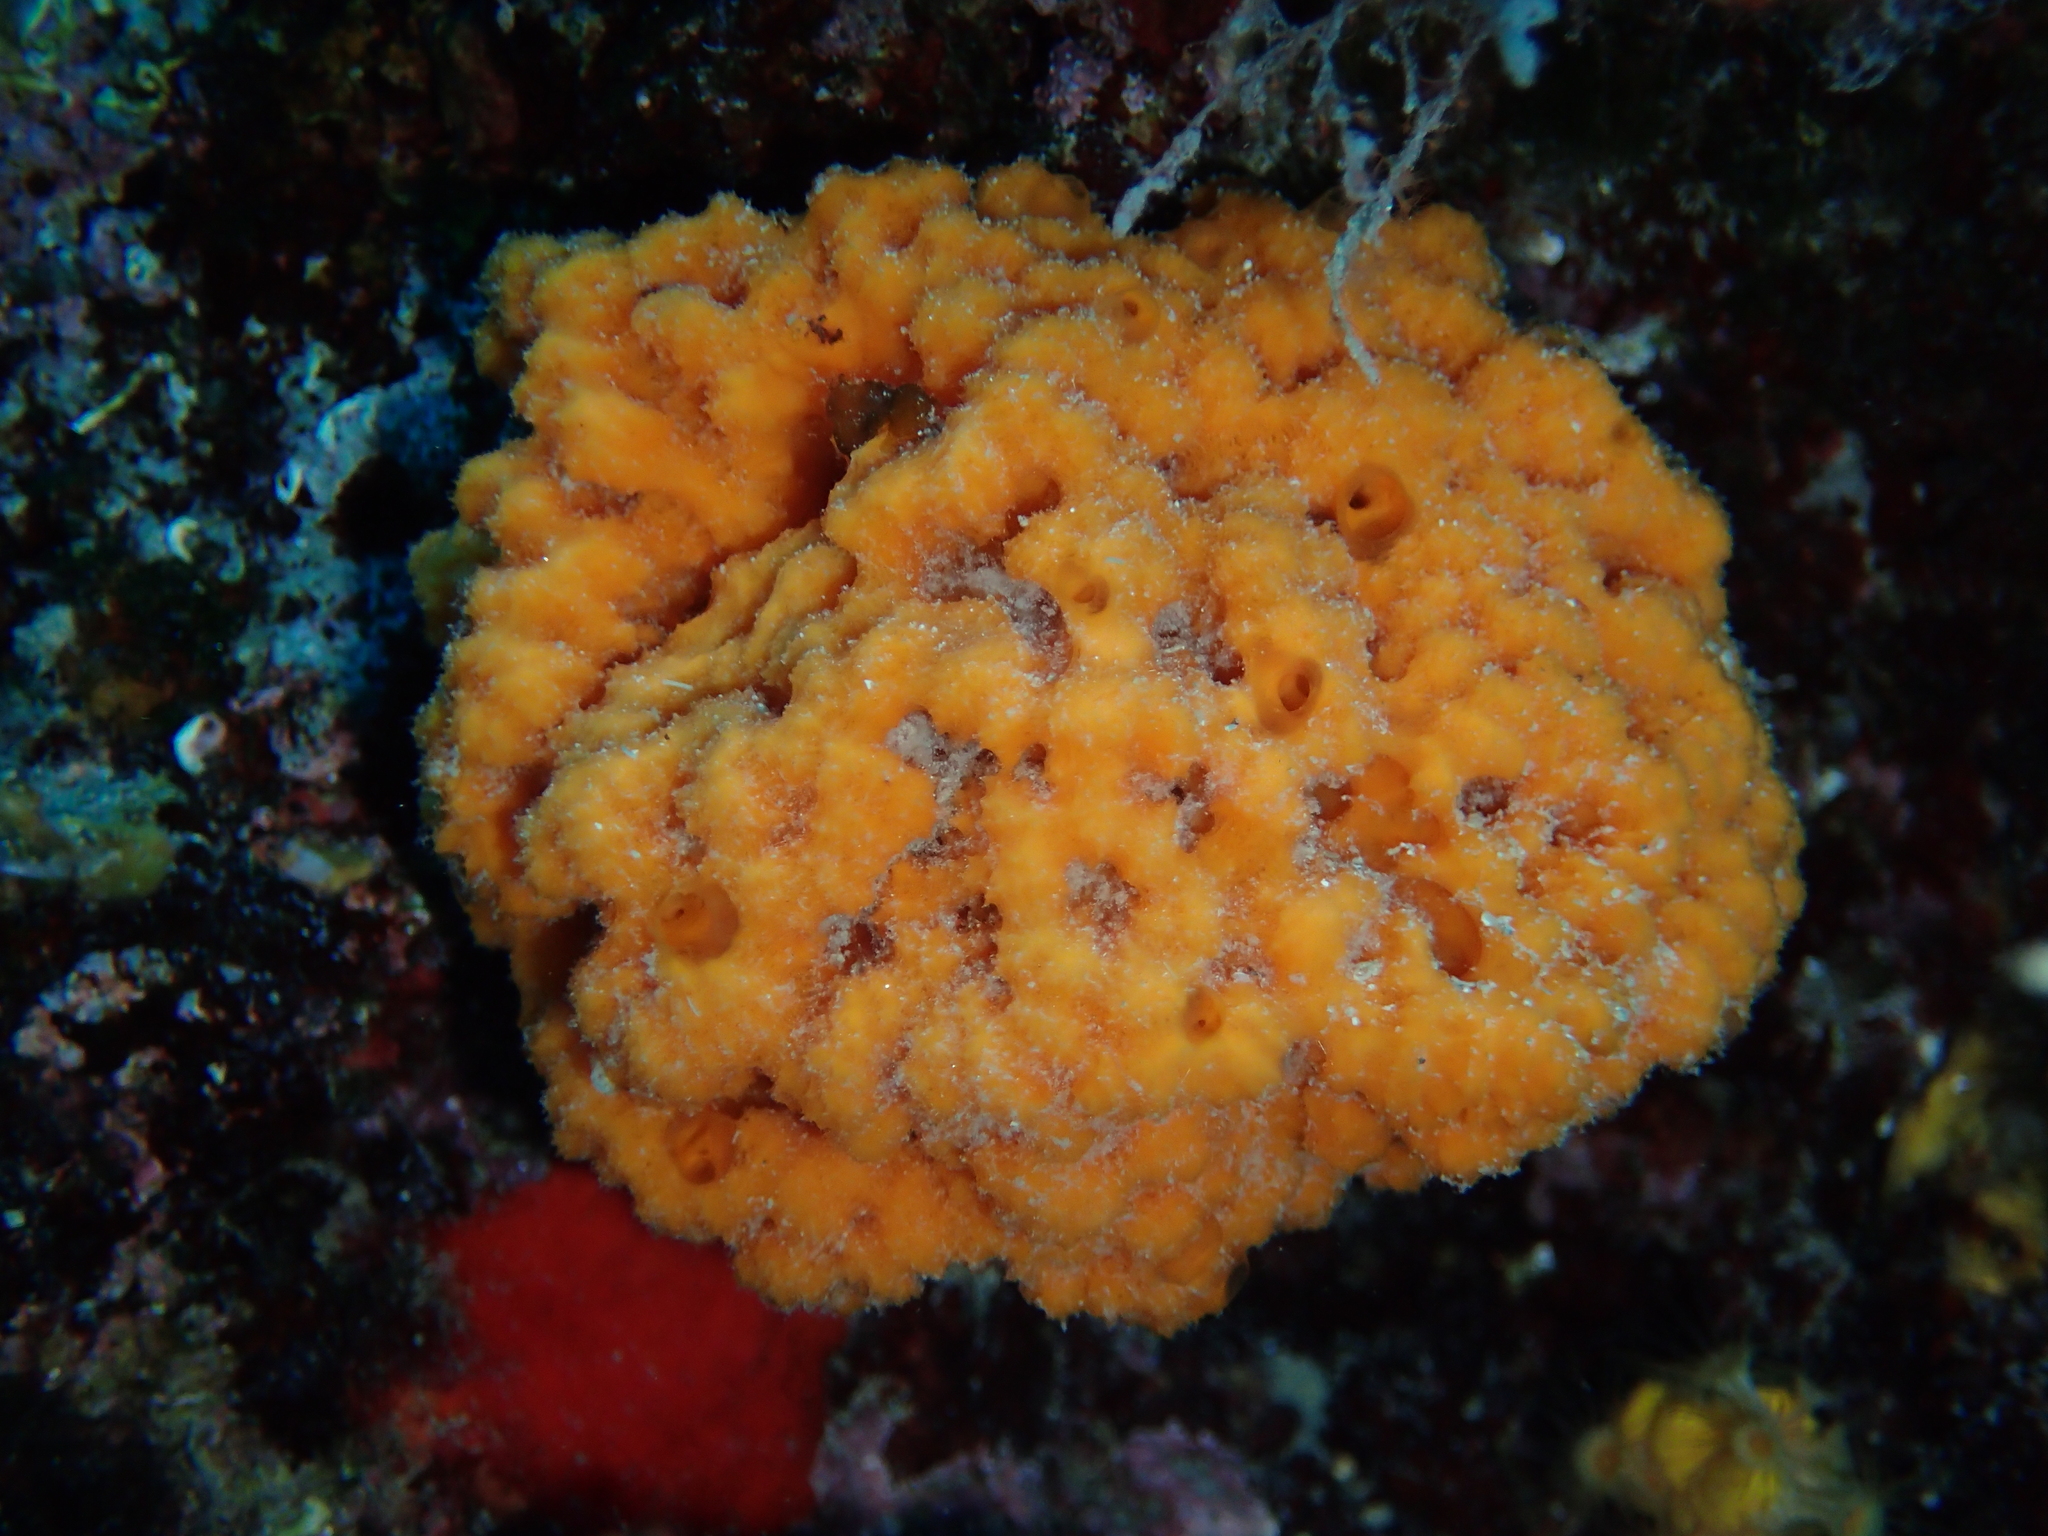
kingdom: Animalia
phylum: Porifera
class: Demospongiae
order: Bubarida
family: Dictyonellidae
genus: Acanthella
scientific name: Acanthella acuta
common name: Cactus sponge
